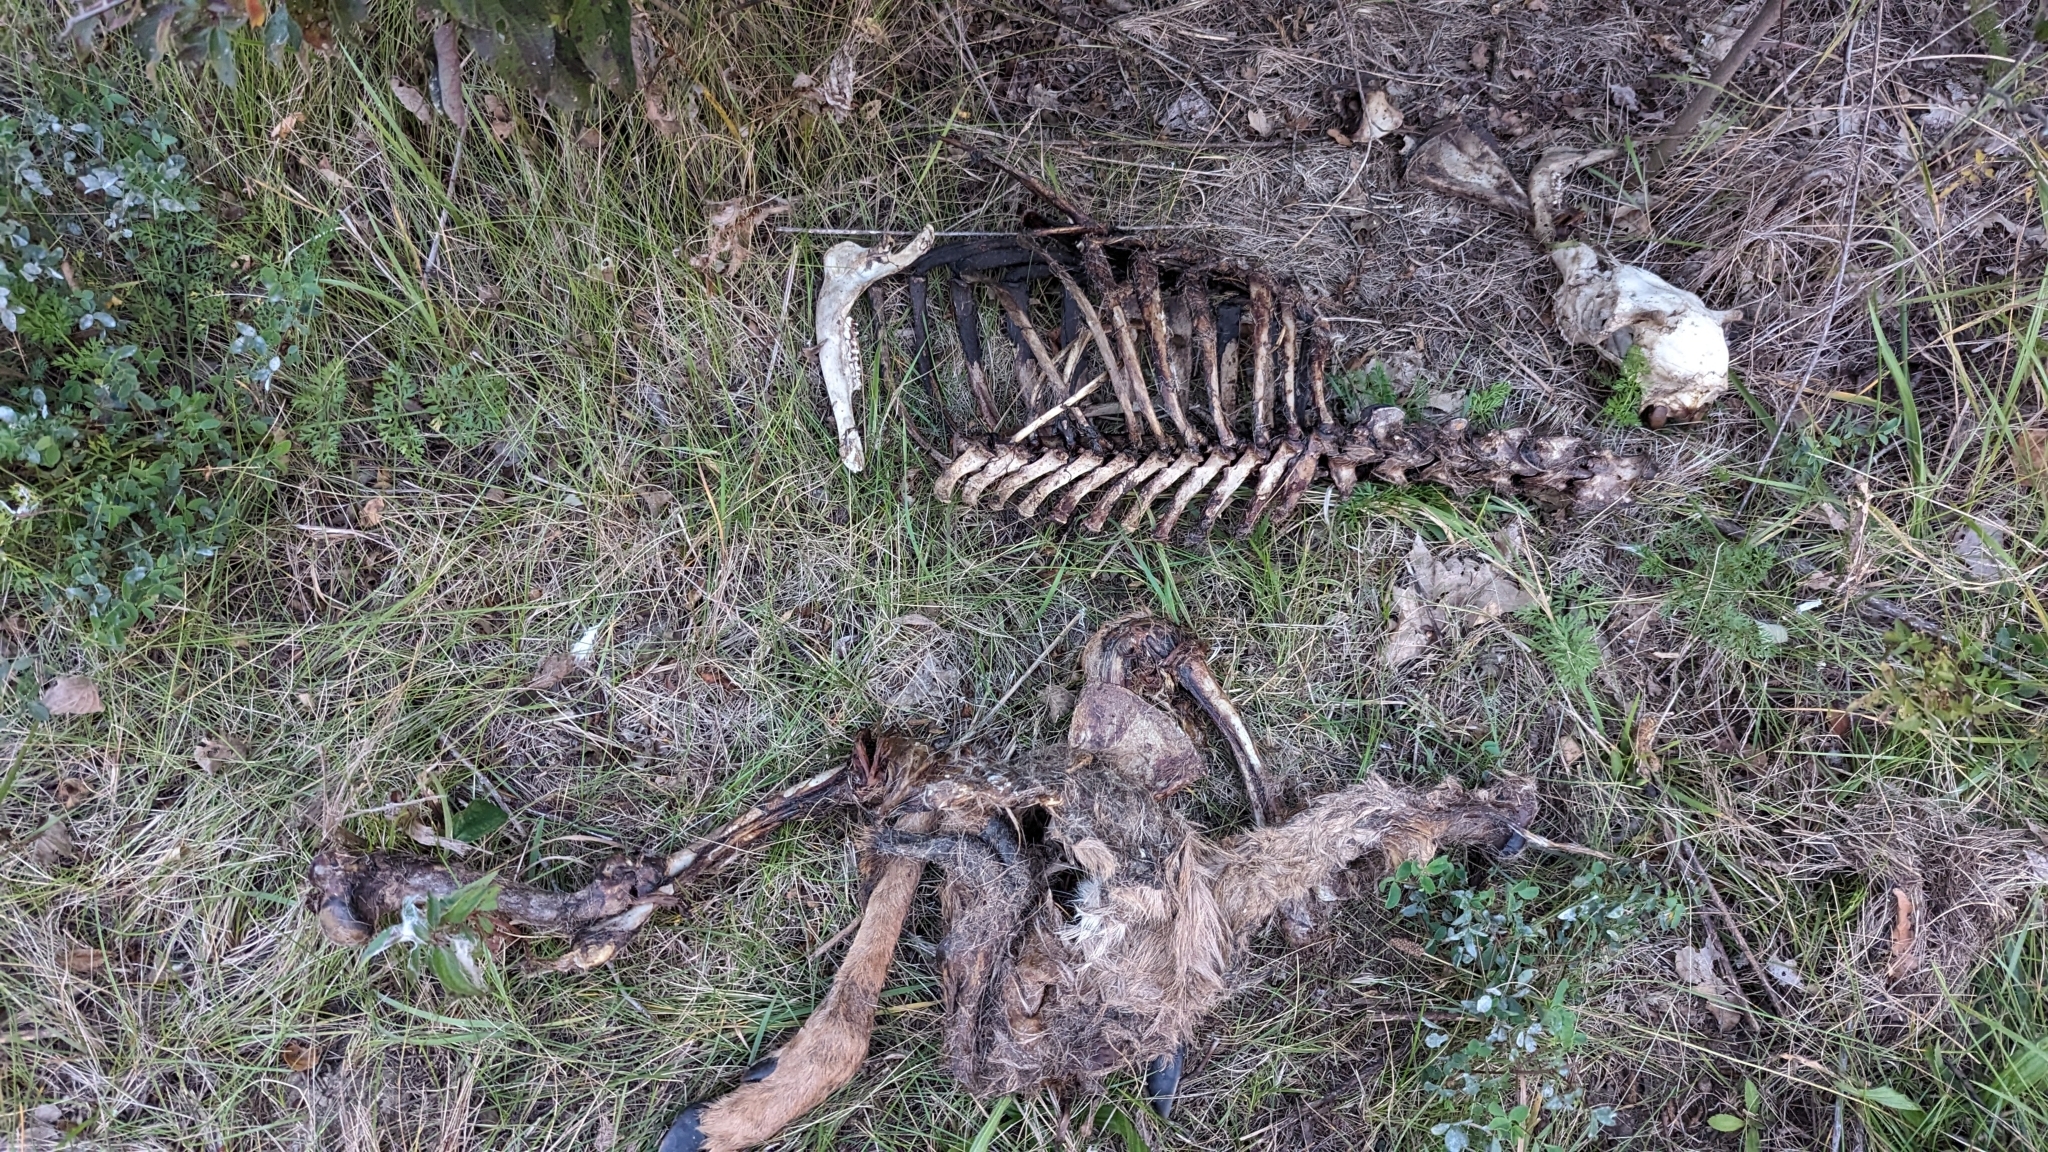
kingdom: Animalia
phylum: Chordata
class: Mammalia
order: Artiodactyla
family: Cervidae
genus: Odocoileus
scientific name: Odocoileus virginianus
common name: White-tailed deer
